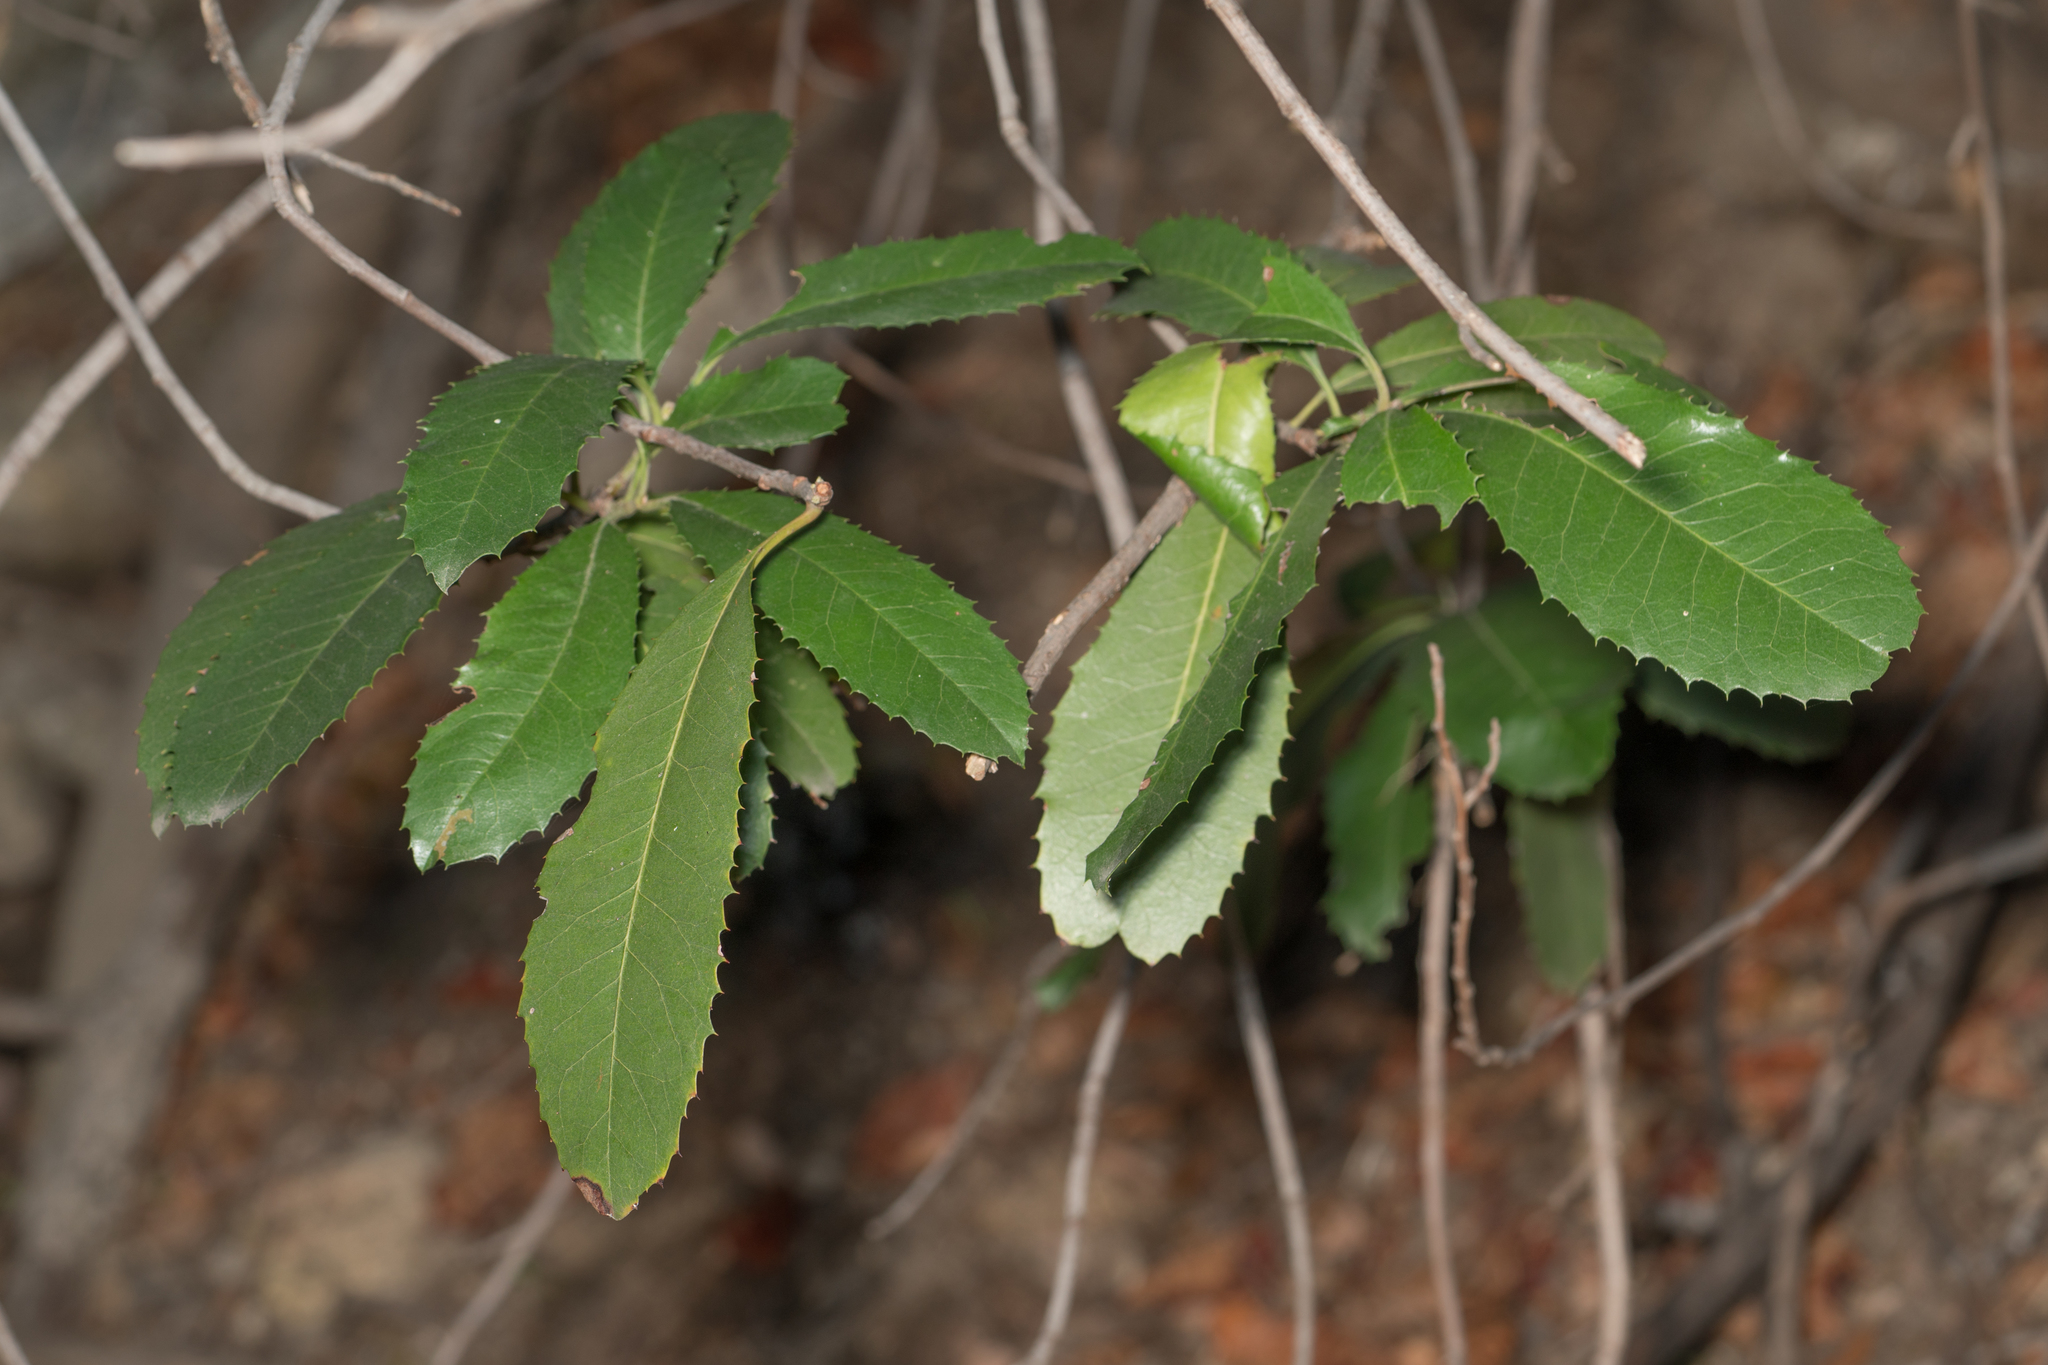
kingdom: Plantae
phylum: Tracheophyta
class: Magnoliopsida
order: Rosales
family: Rosaceae
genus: Heteromeles
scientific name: Heteromeles arbutifolia
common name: California-holly
